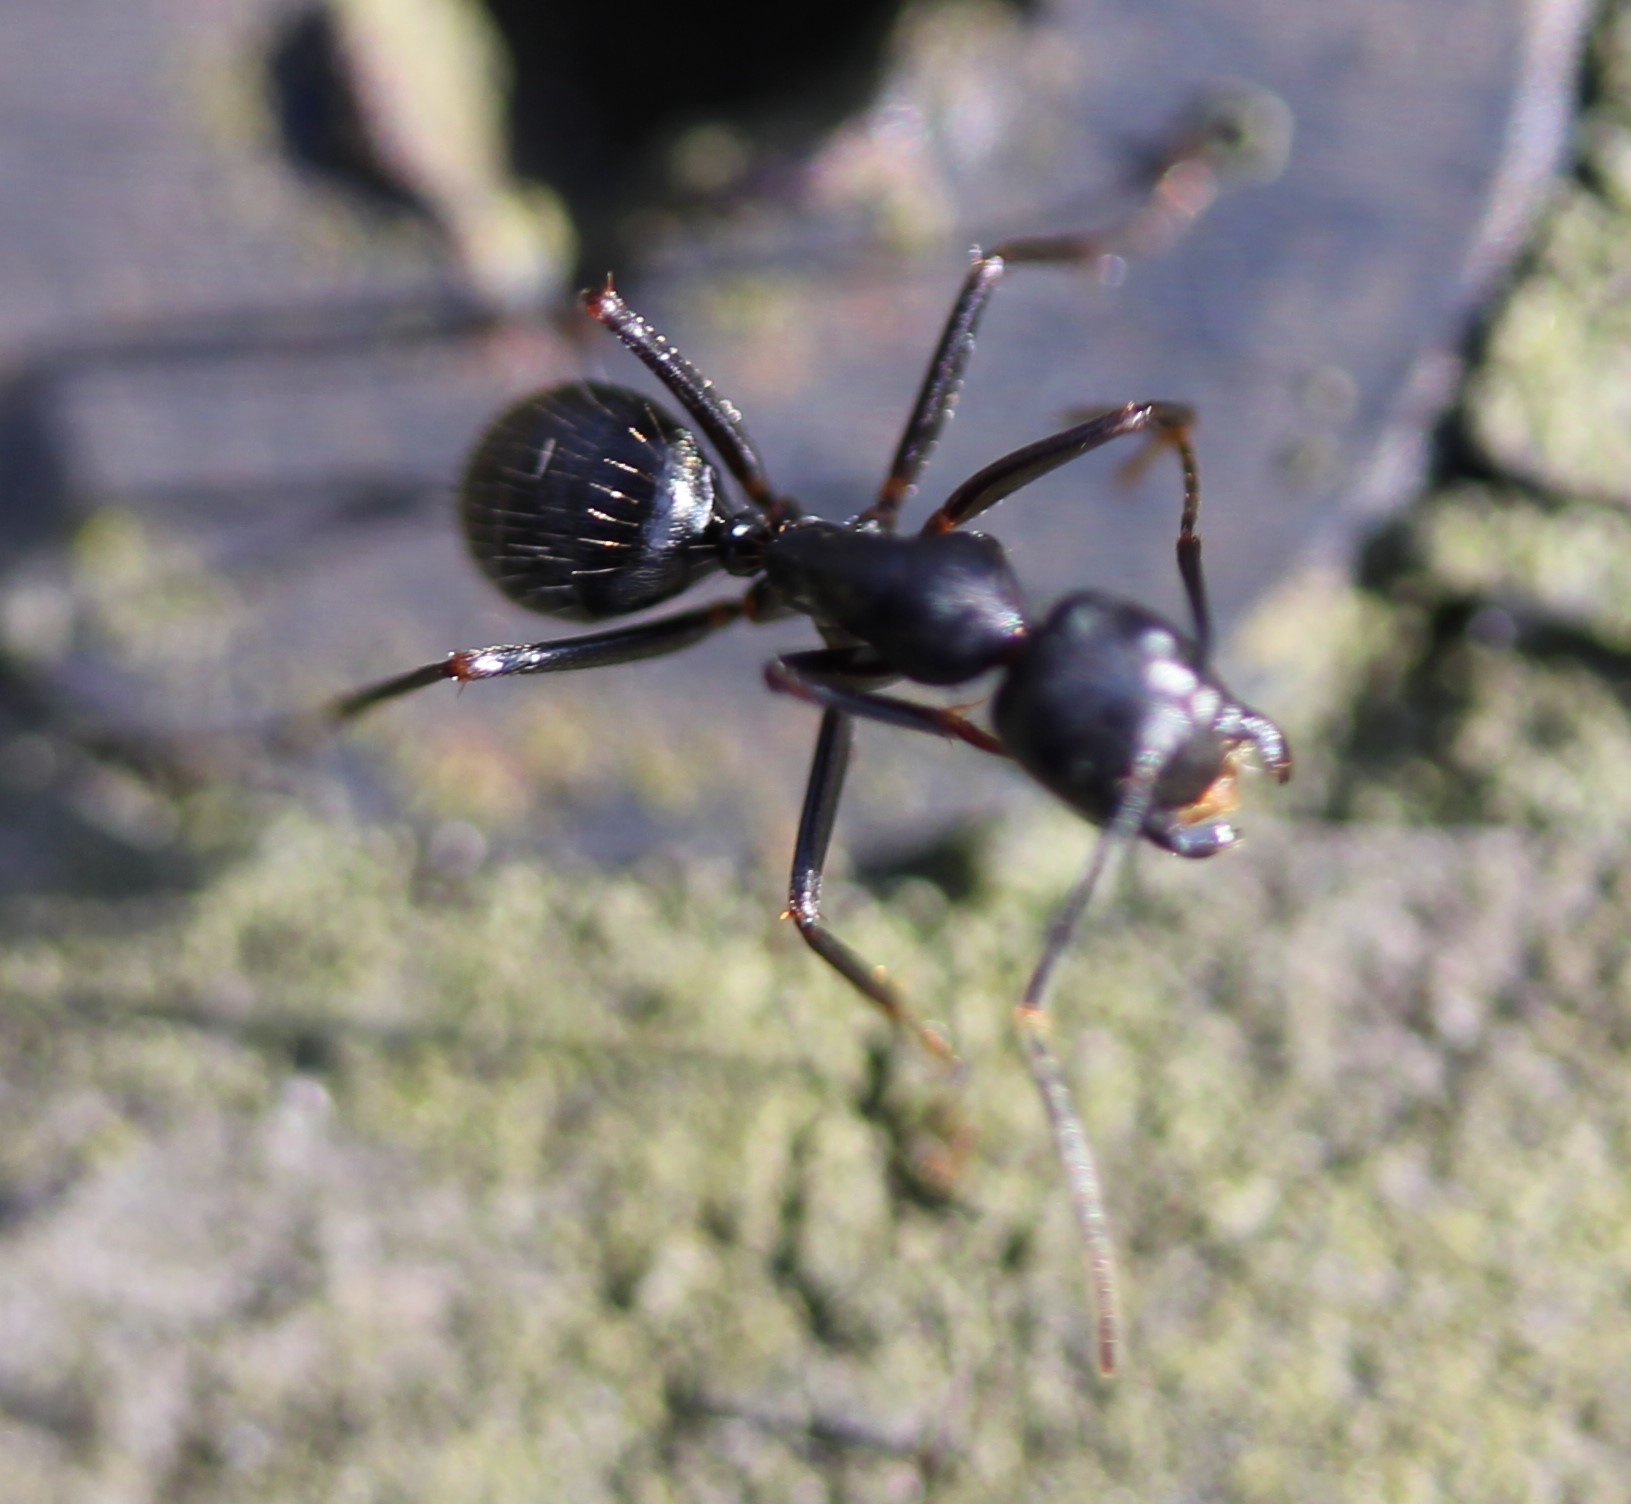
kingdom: Animalia
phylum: Arthropoda
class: Insecta
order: Hymenoptera
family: Formicidae
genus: Camponotus
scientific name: Camponotus pennsylvanicus
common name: Black carpenter ant
